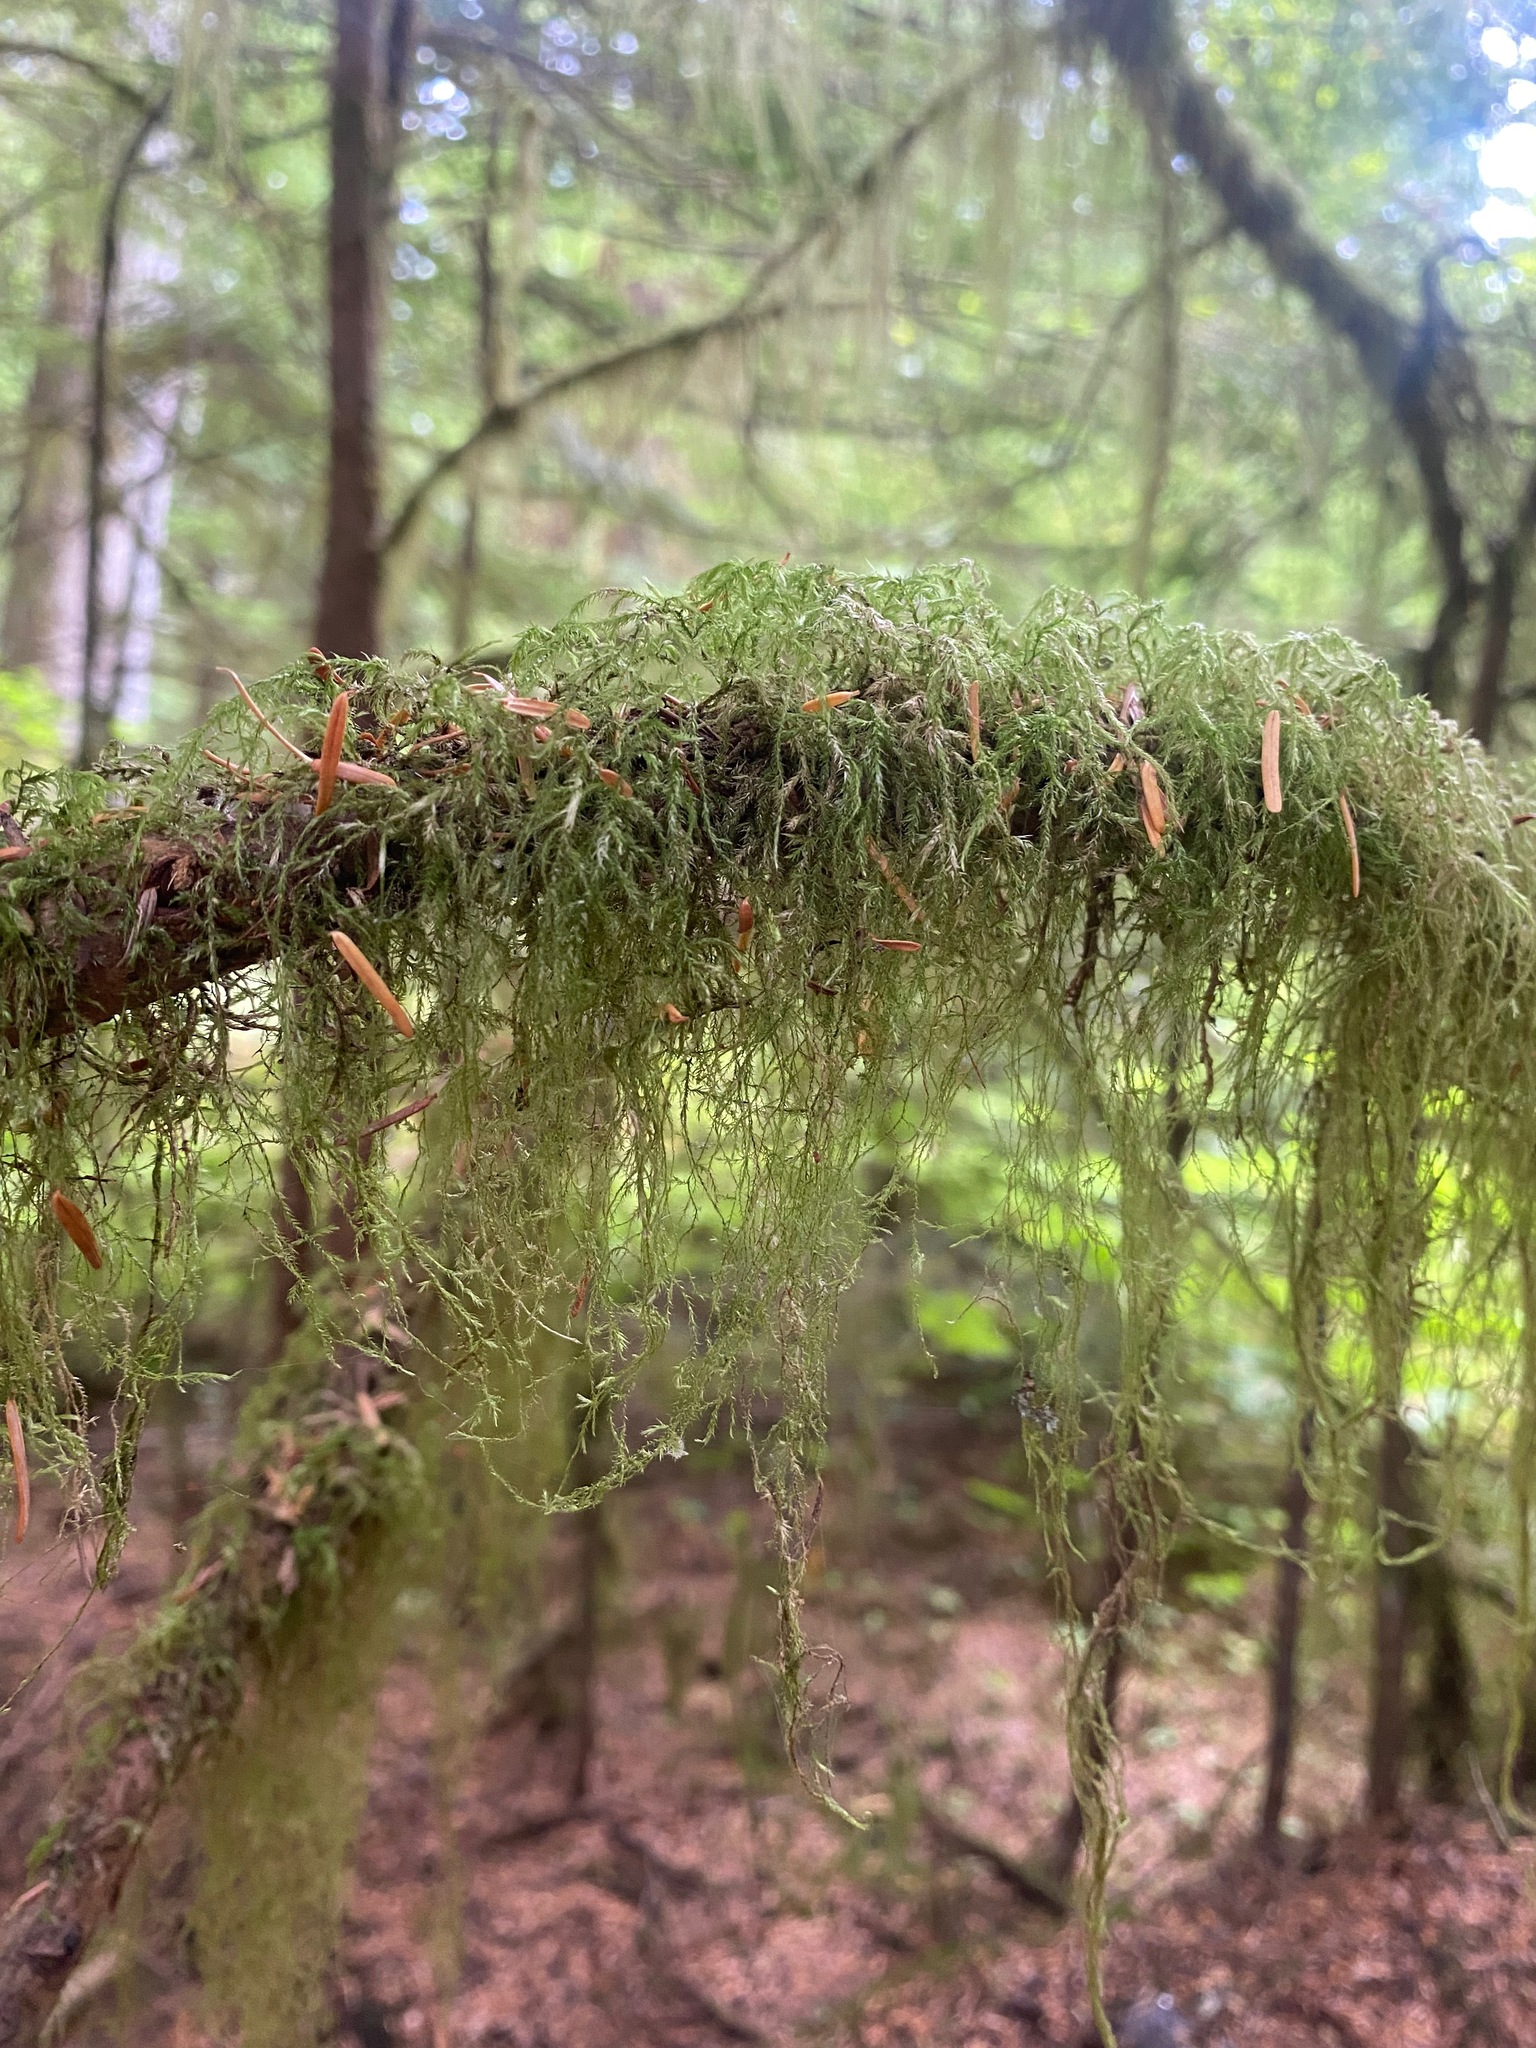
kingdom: Plantae
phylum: Bryophyta
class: Bryopsida
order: Hypnales
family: Lembophyllaceae
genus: Pseudisothecium
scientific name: Pseudisothecium stoloniferum
